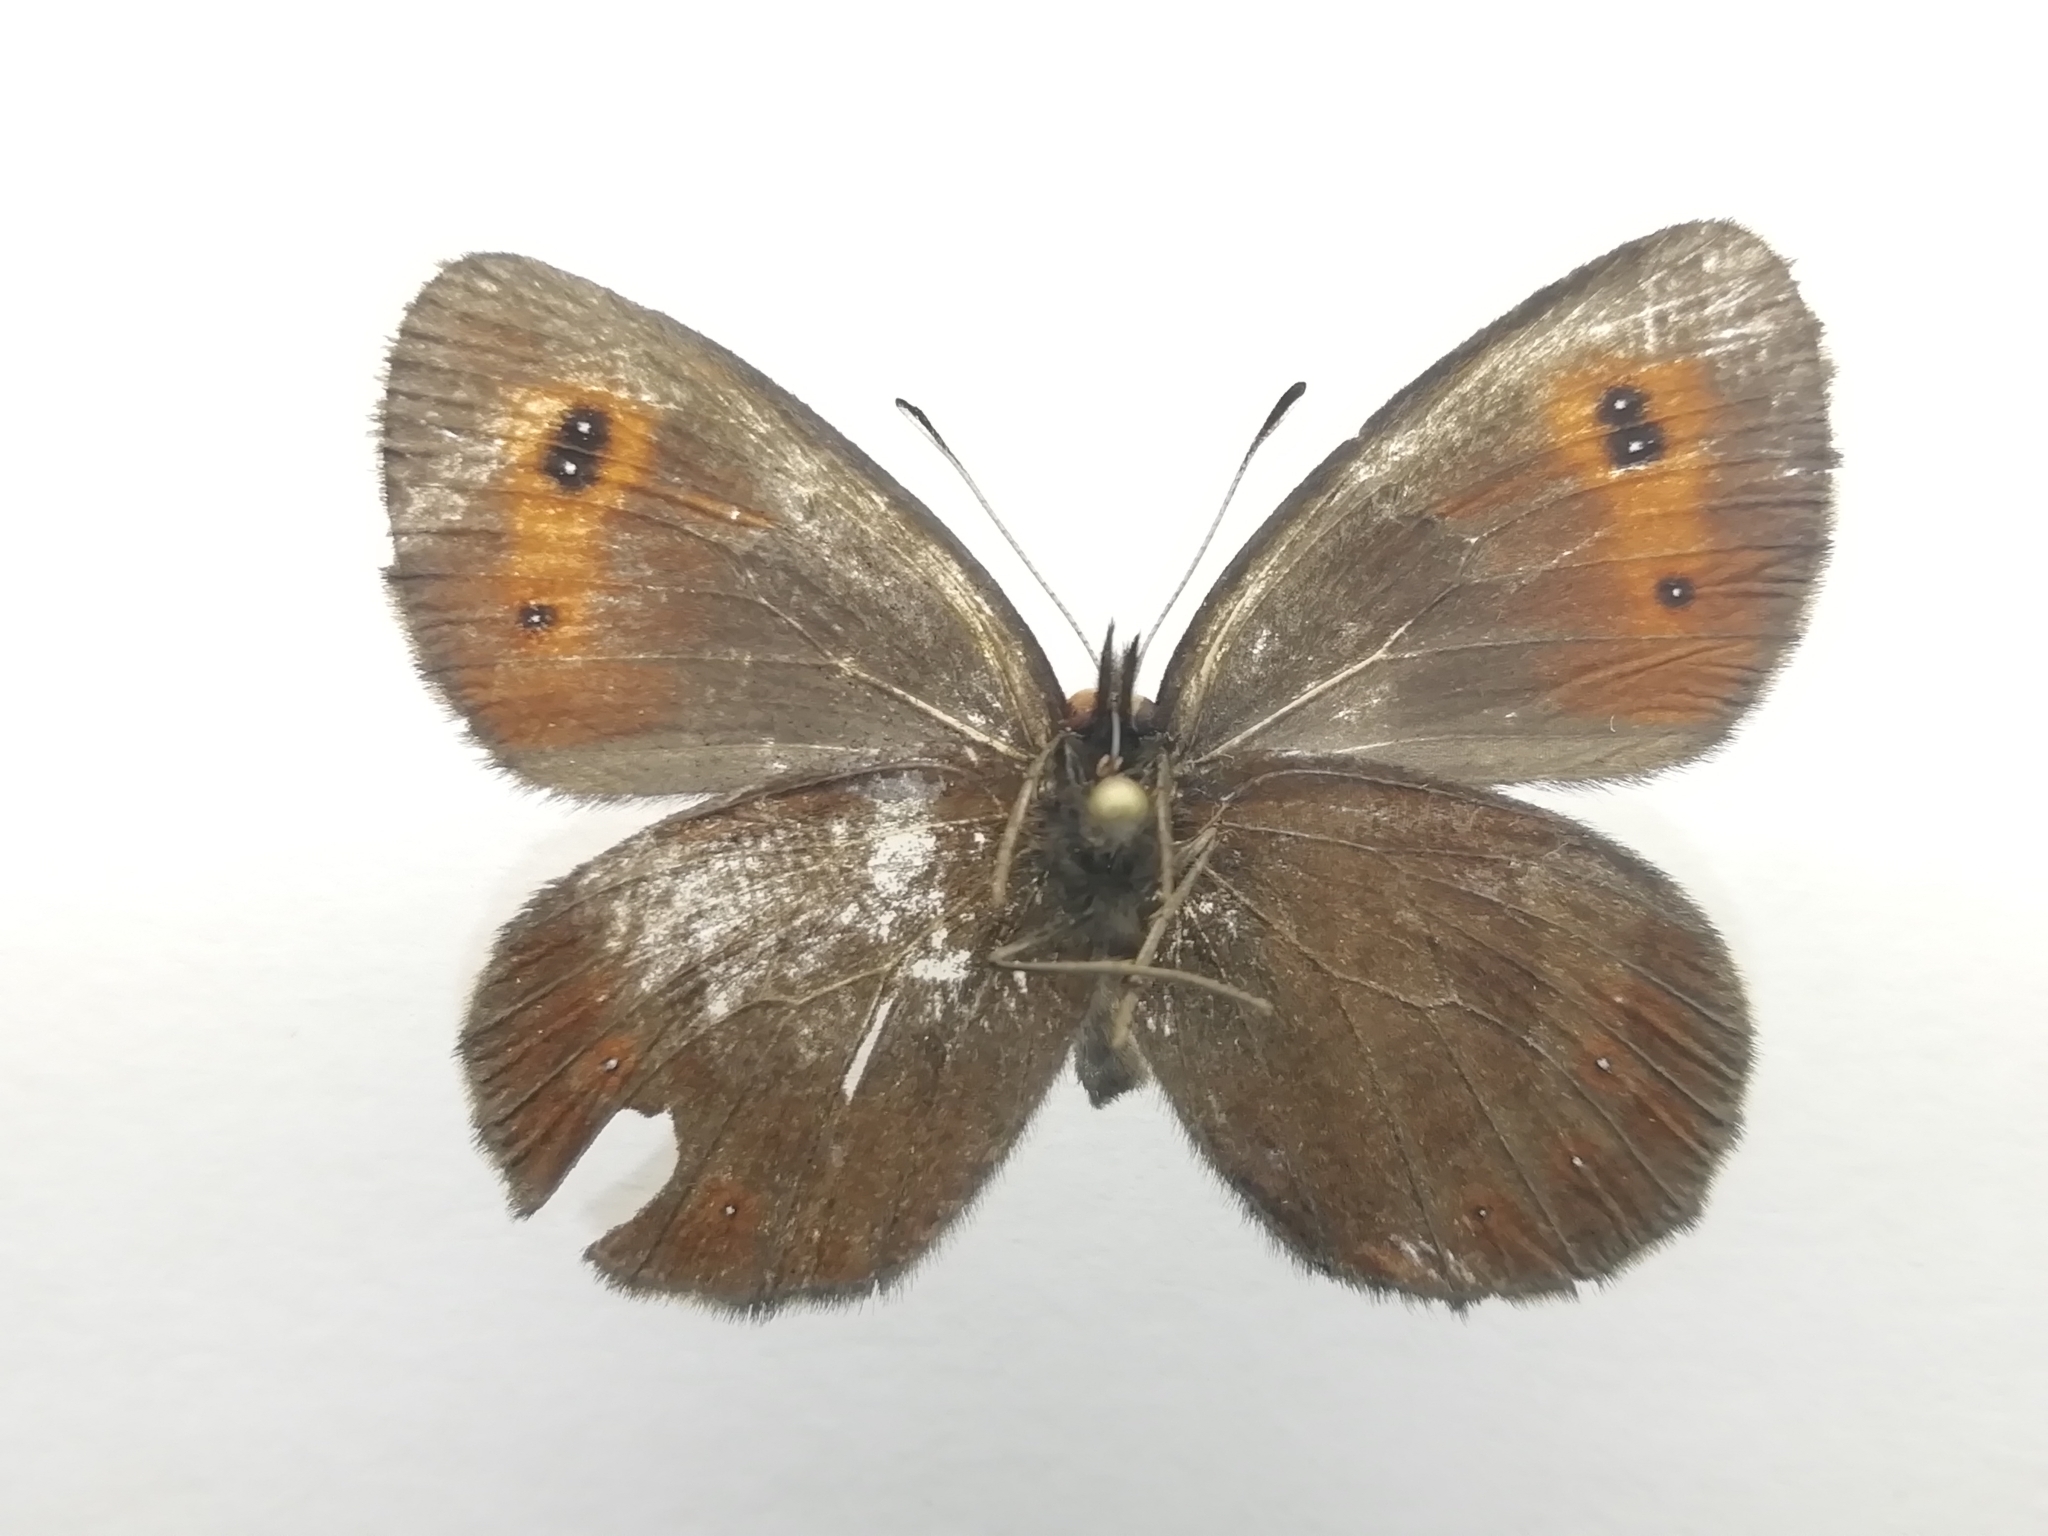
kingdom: Animalia
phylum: Arthropoda
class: Insecta
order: Lepidoptera
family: Nymphalidae
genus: Erebia
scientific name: Erebia aethiops
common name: Scotch argus
